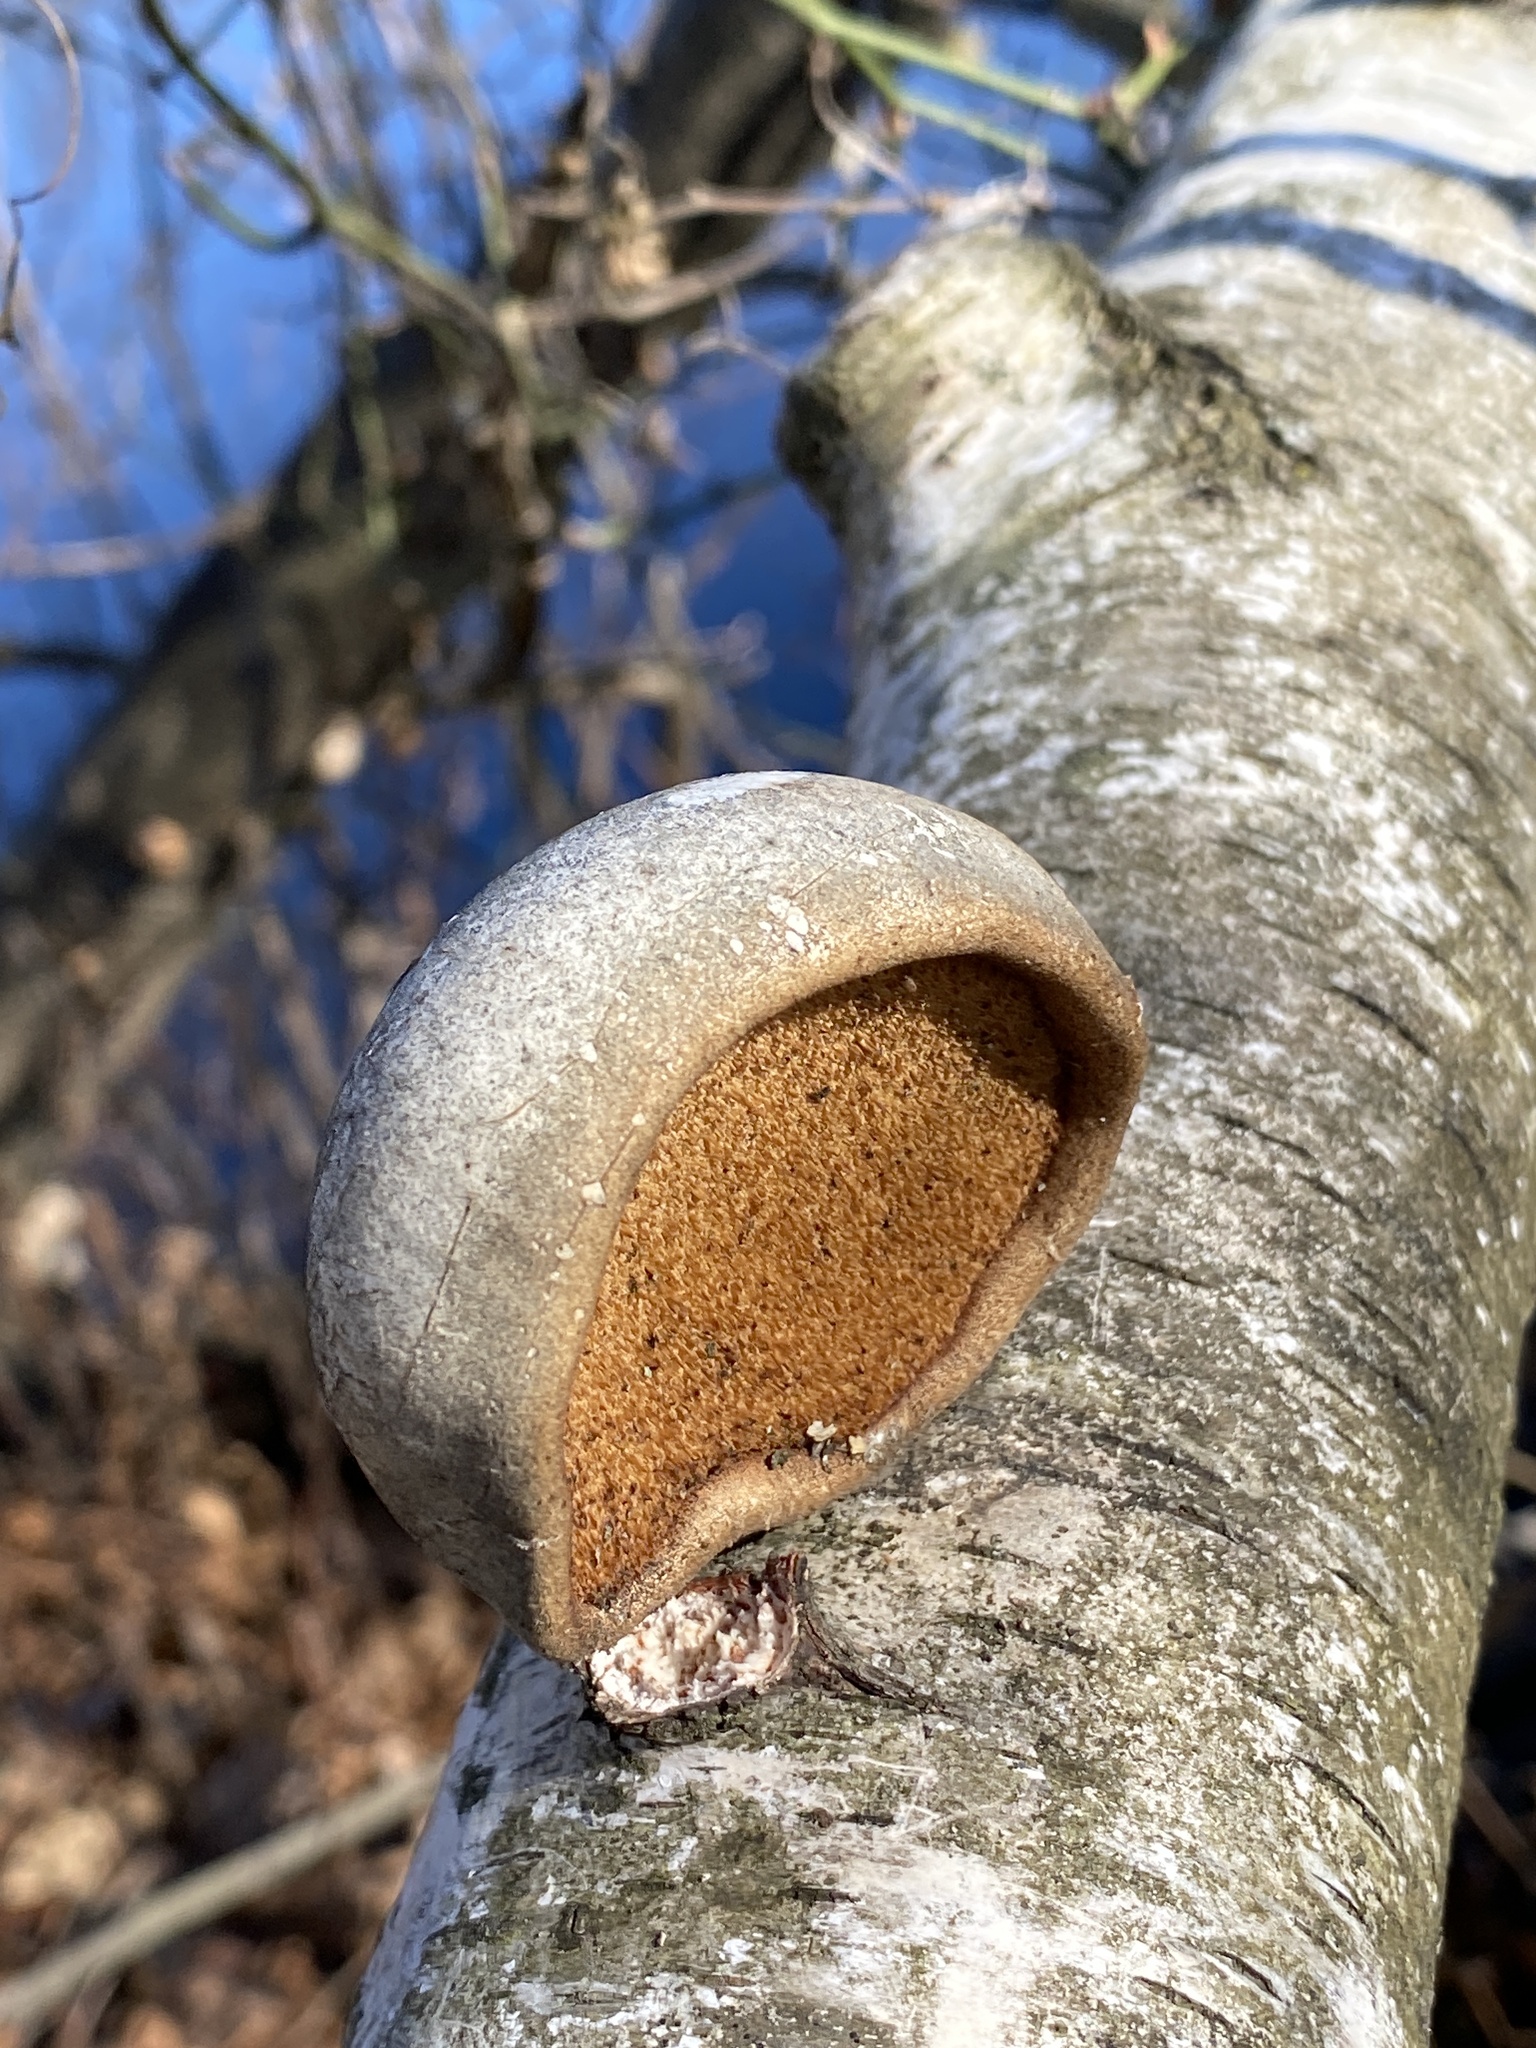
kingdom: Fungi
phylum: Basidiomycota
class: Agaricomycetes
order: Polyporales
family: Fomitopsidaceae
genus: Fomitopsis
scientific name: Fomitopsis betulina
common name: Birch polypore
